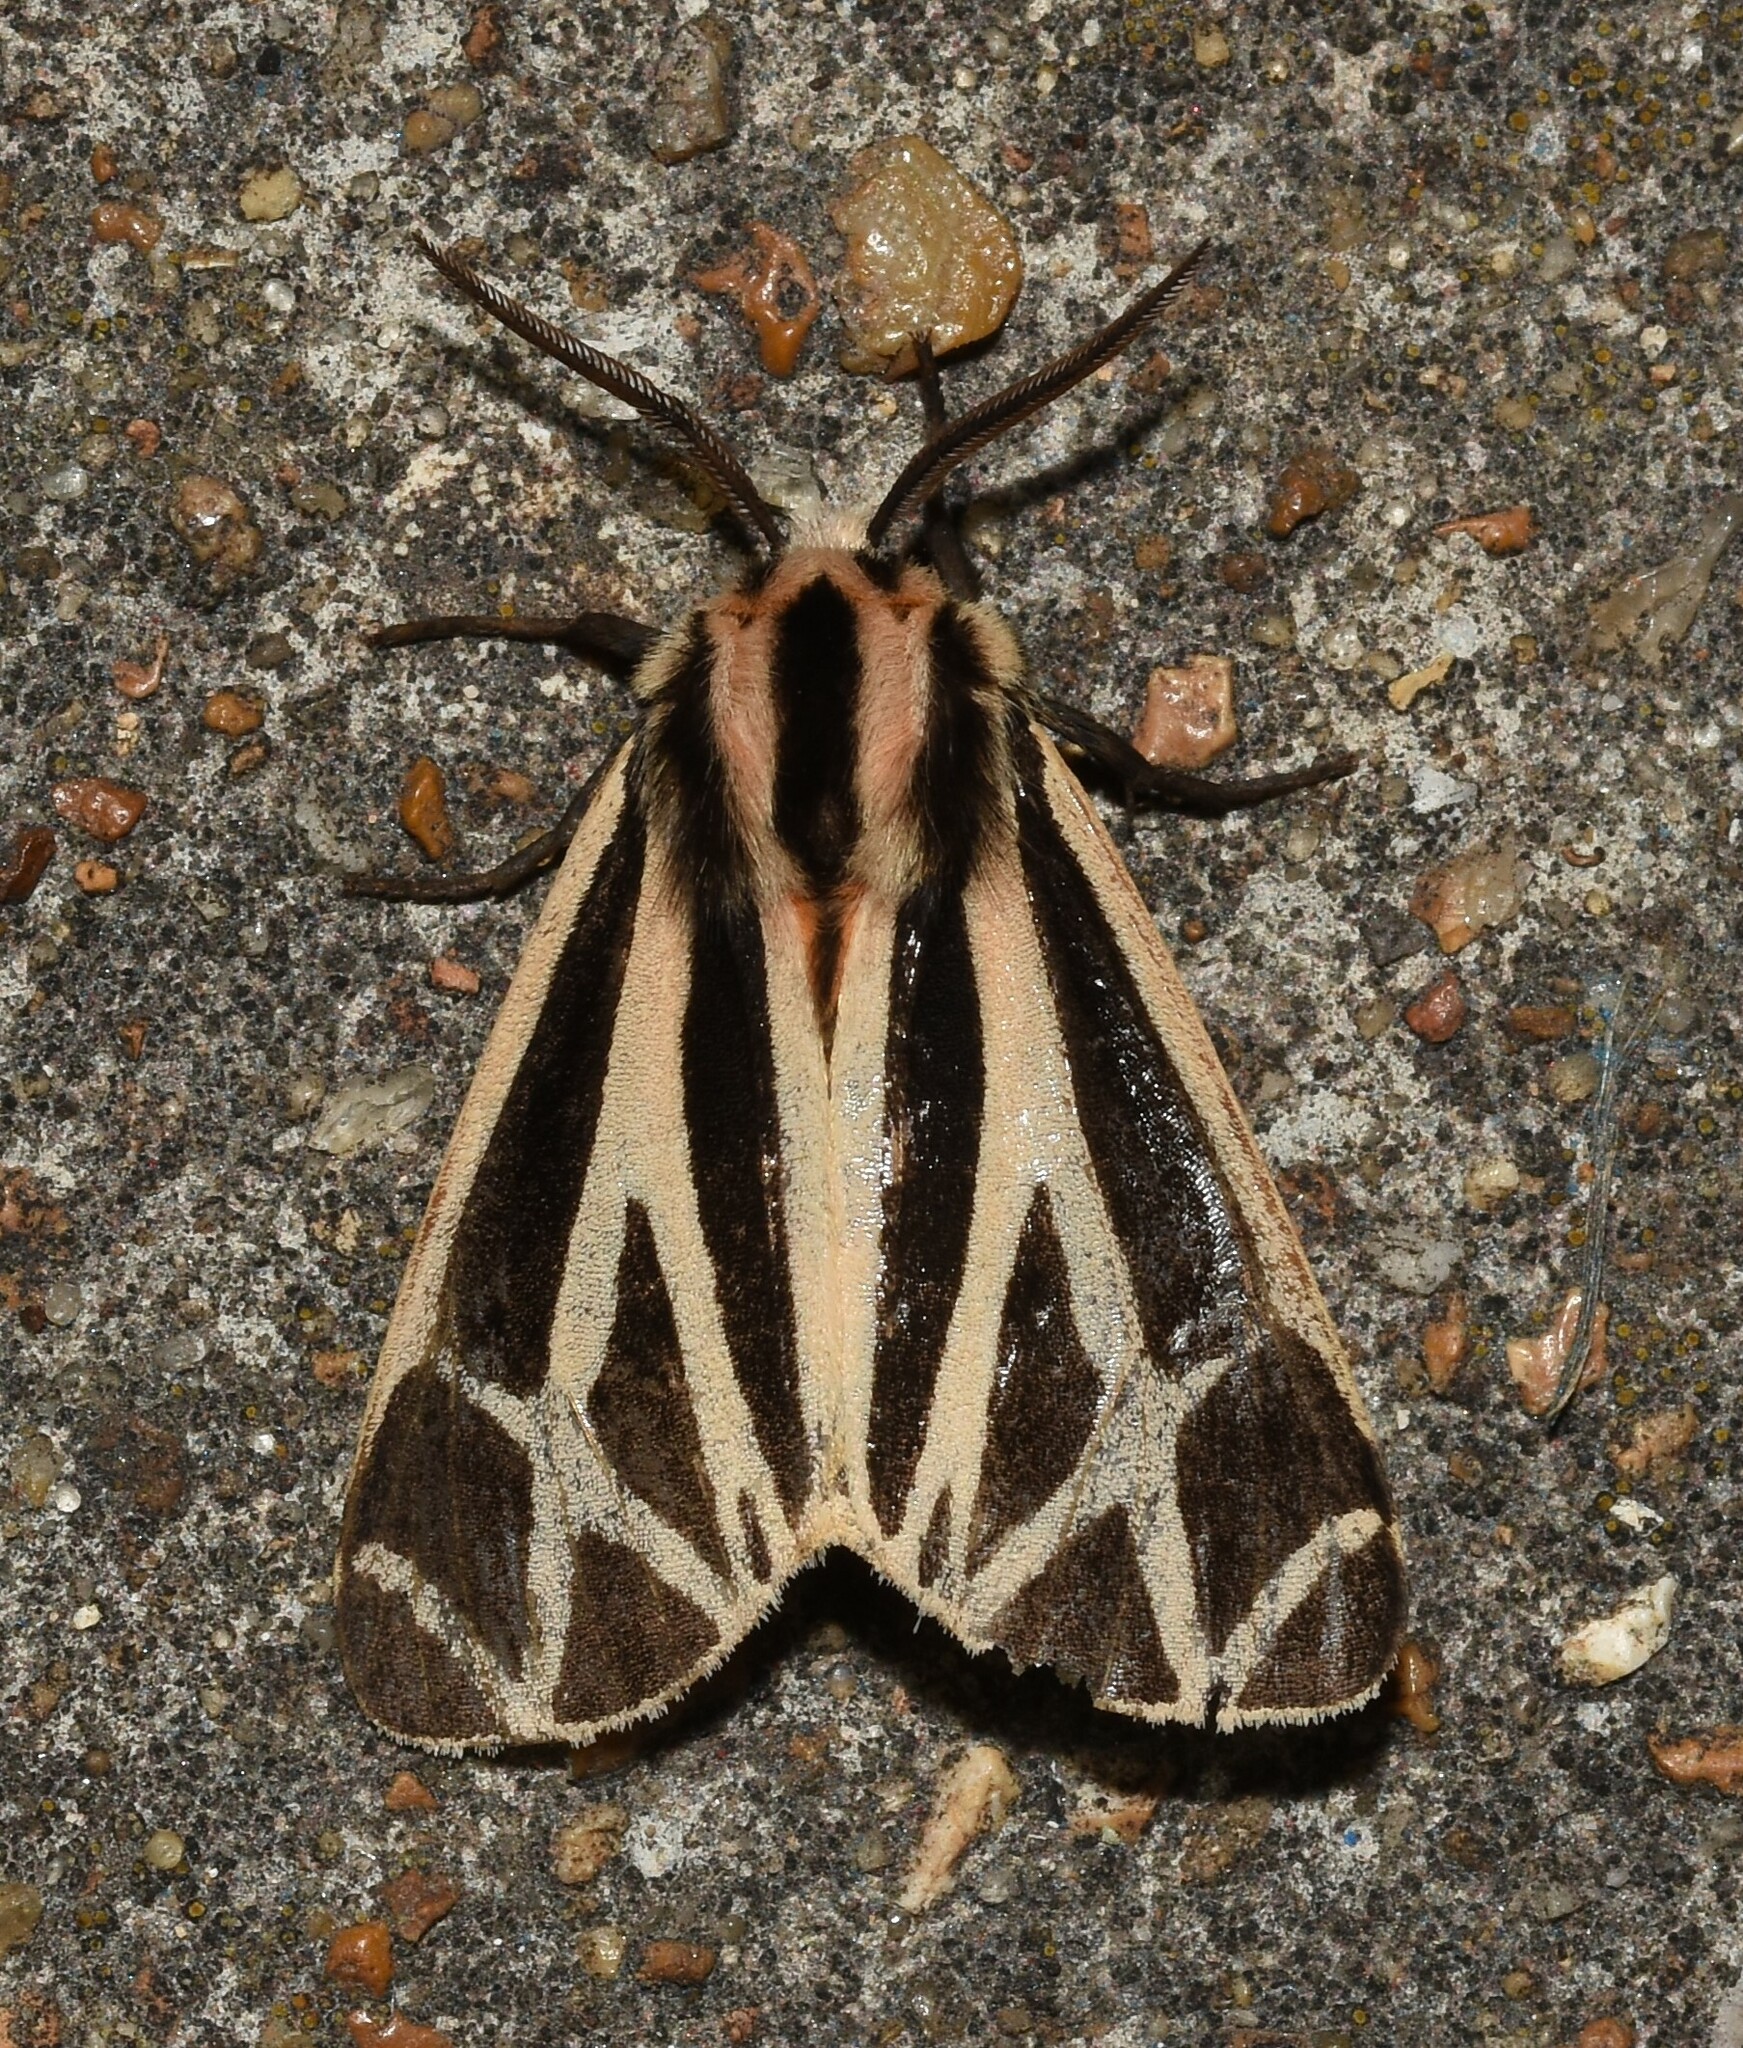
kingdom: Animalia
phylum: Arthropoda
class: Insecta
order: Lepidoptera
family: Erebidae
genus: Apantesis
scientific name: Apantesis phalerata
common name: Harnessed tiger moth
